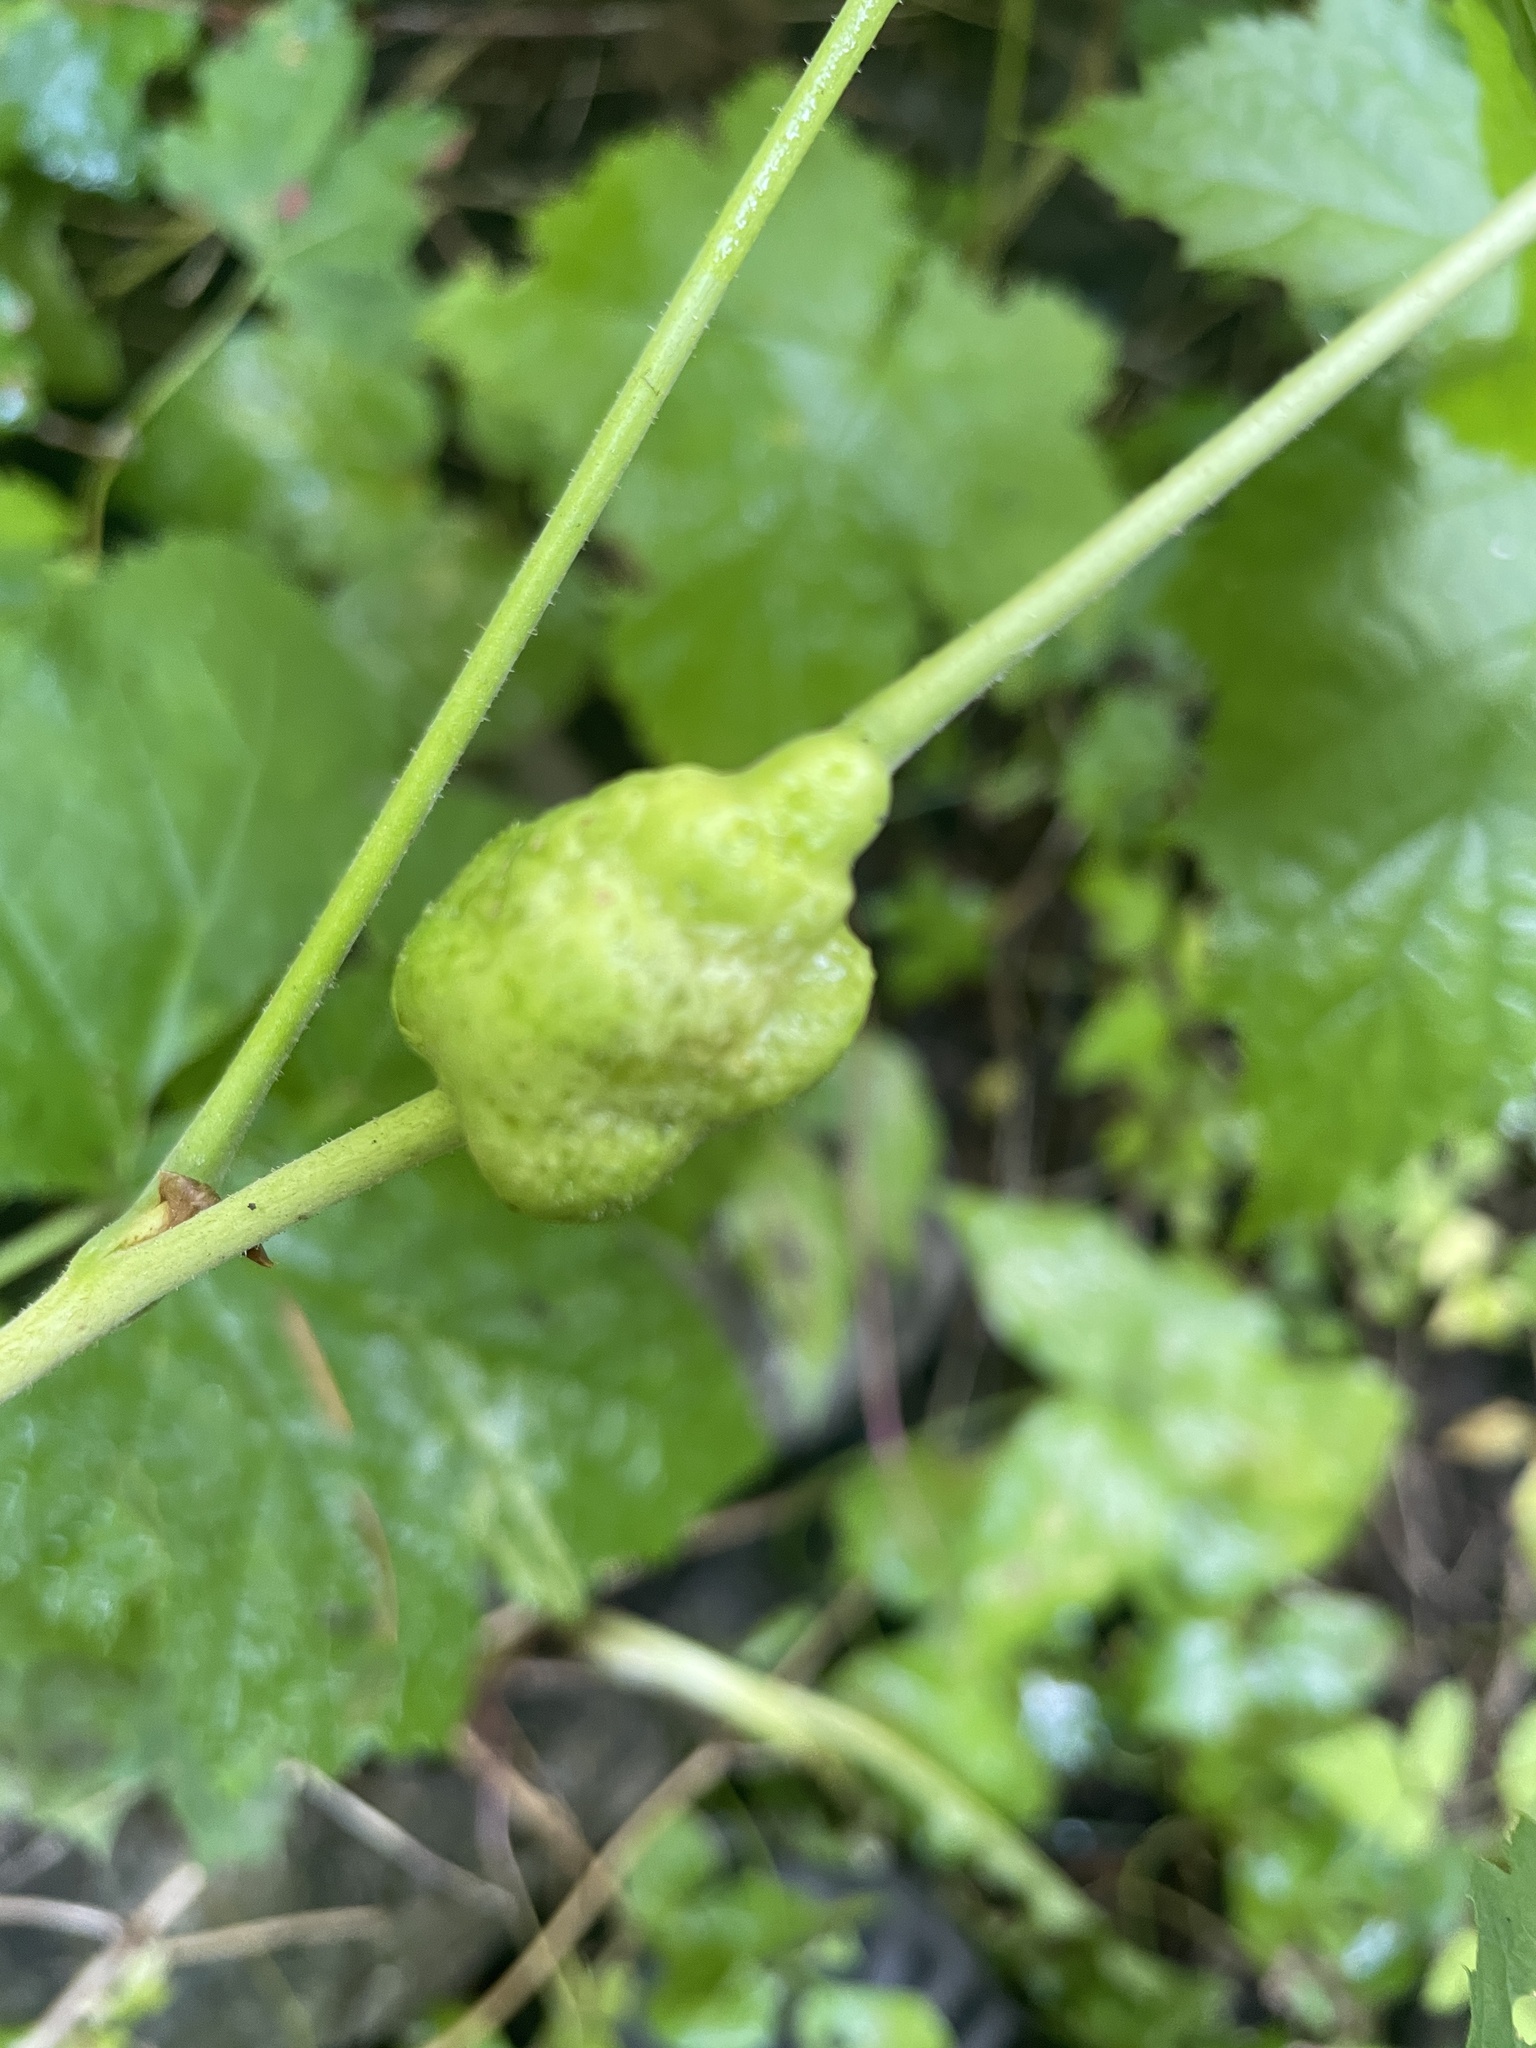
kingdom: Animalia
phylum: Arthropoda
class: Insecta
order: Hymenoptera
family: Cynipidae
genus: Diastrophus
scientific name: Diastrophus
